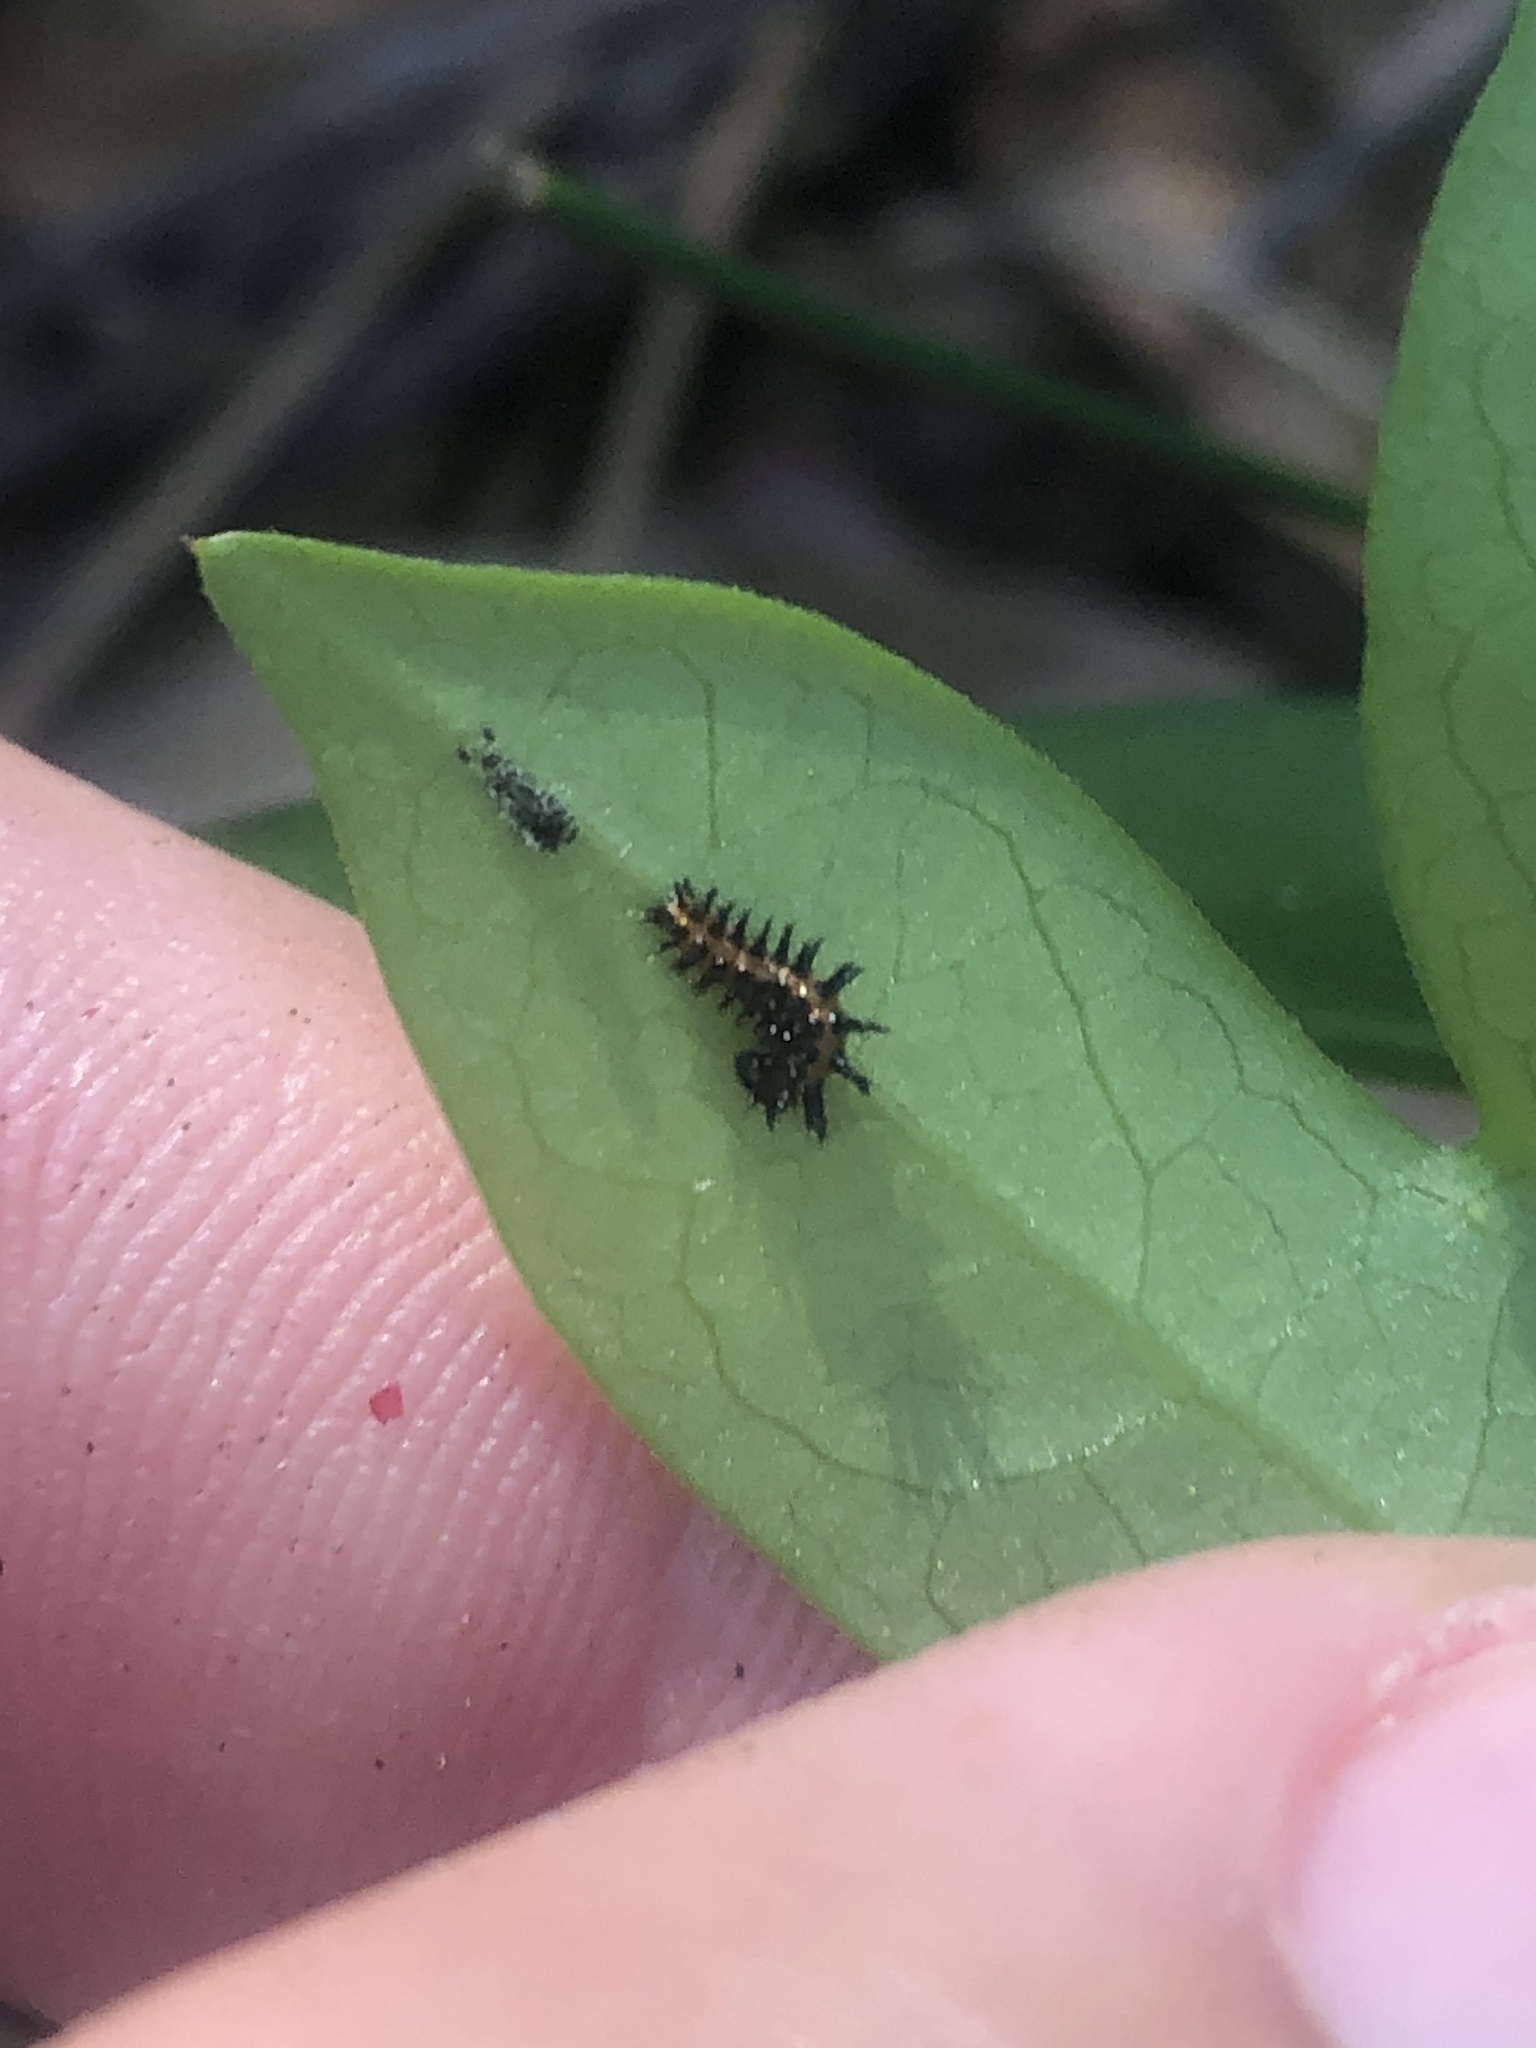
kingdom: Animalia
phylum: Arthropoda
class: Insecta
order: Lepidoptera
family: Nymphalidae
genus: Dione
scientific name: Dione vanillae
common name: Gulf fritillary
